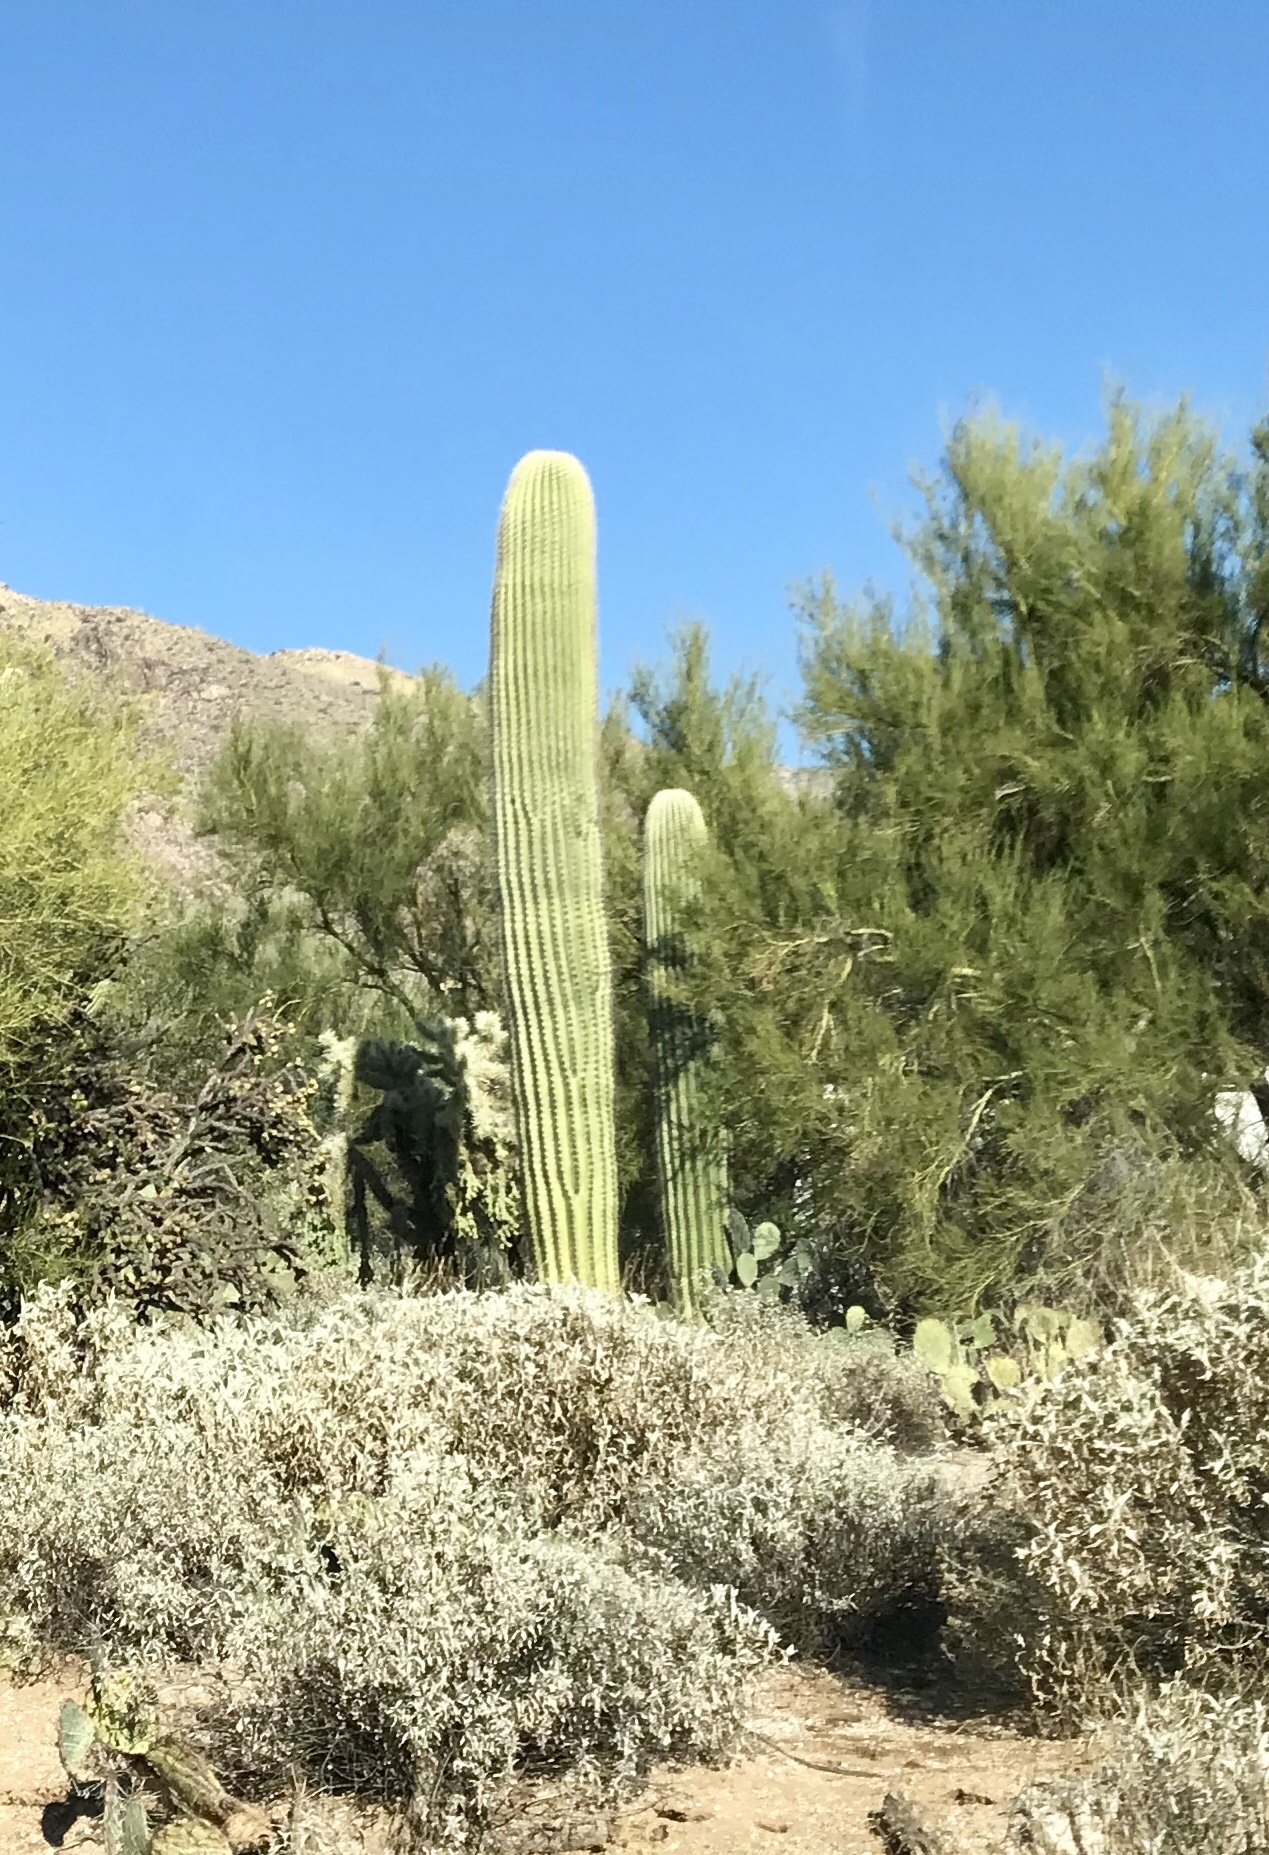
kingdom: Plantae
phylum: Tracheophyta
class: Magnoliopsida
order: Caryophyllales
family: Cactaceae
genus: Carnegiea
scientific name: Carnegiea gigantea
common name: Saguaro
